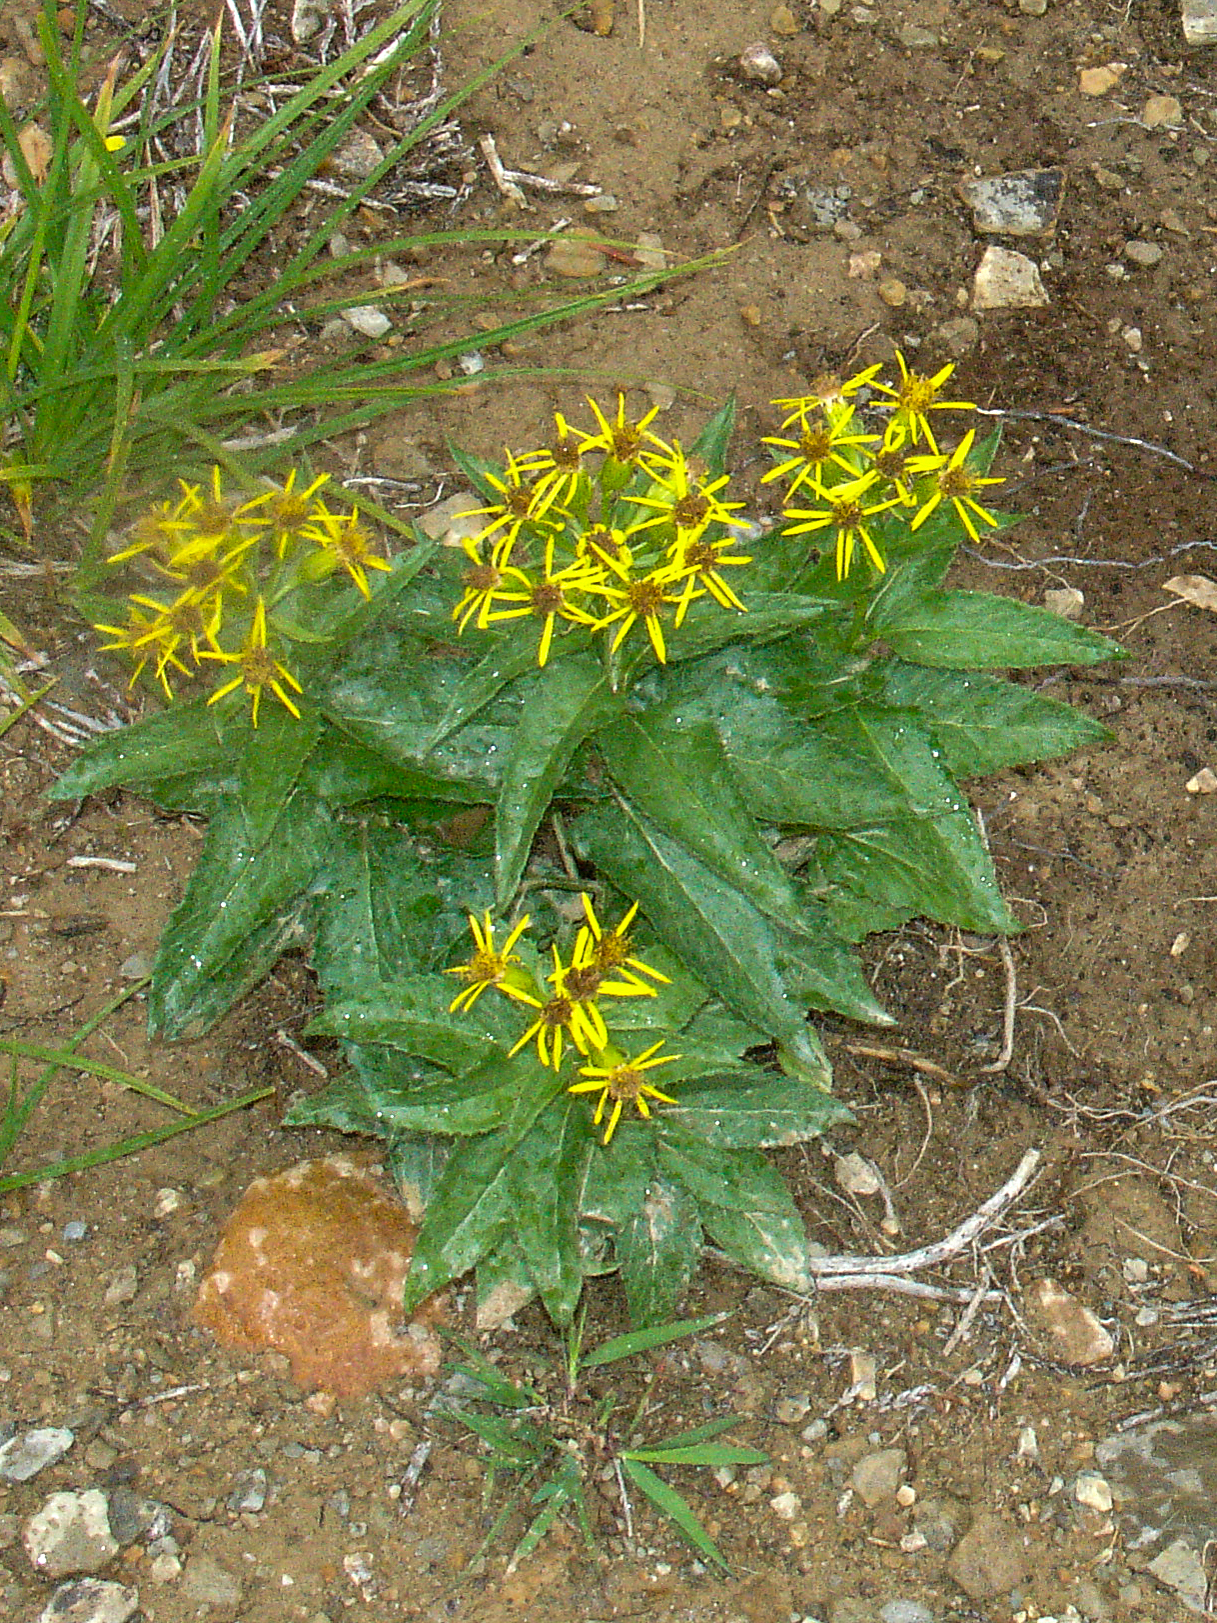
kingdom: Plantae
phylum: Tracheophyta
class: Magnoliopsida
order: Asterales
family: Asteraceae
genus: Senecio
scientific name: Senecio triangularis
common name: Arrowleaf butterweed
